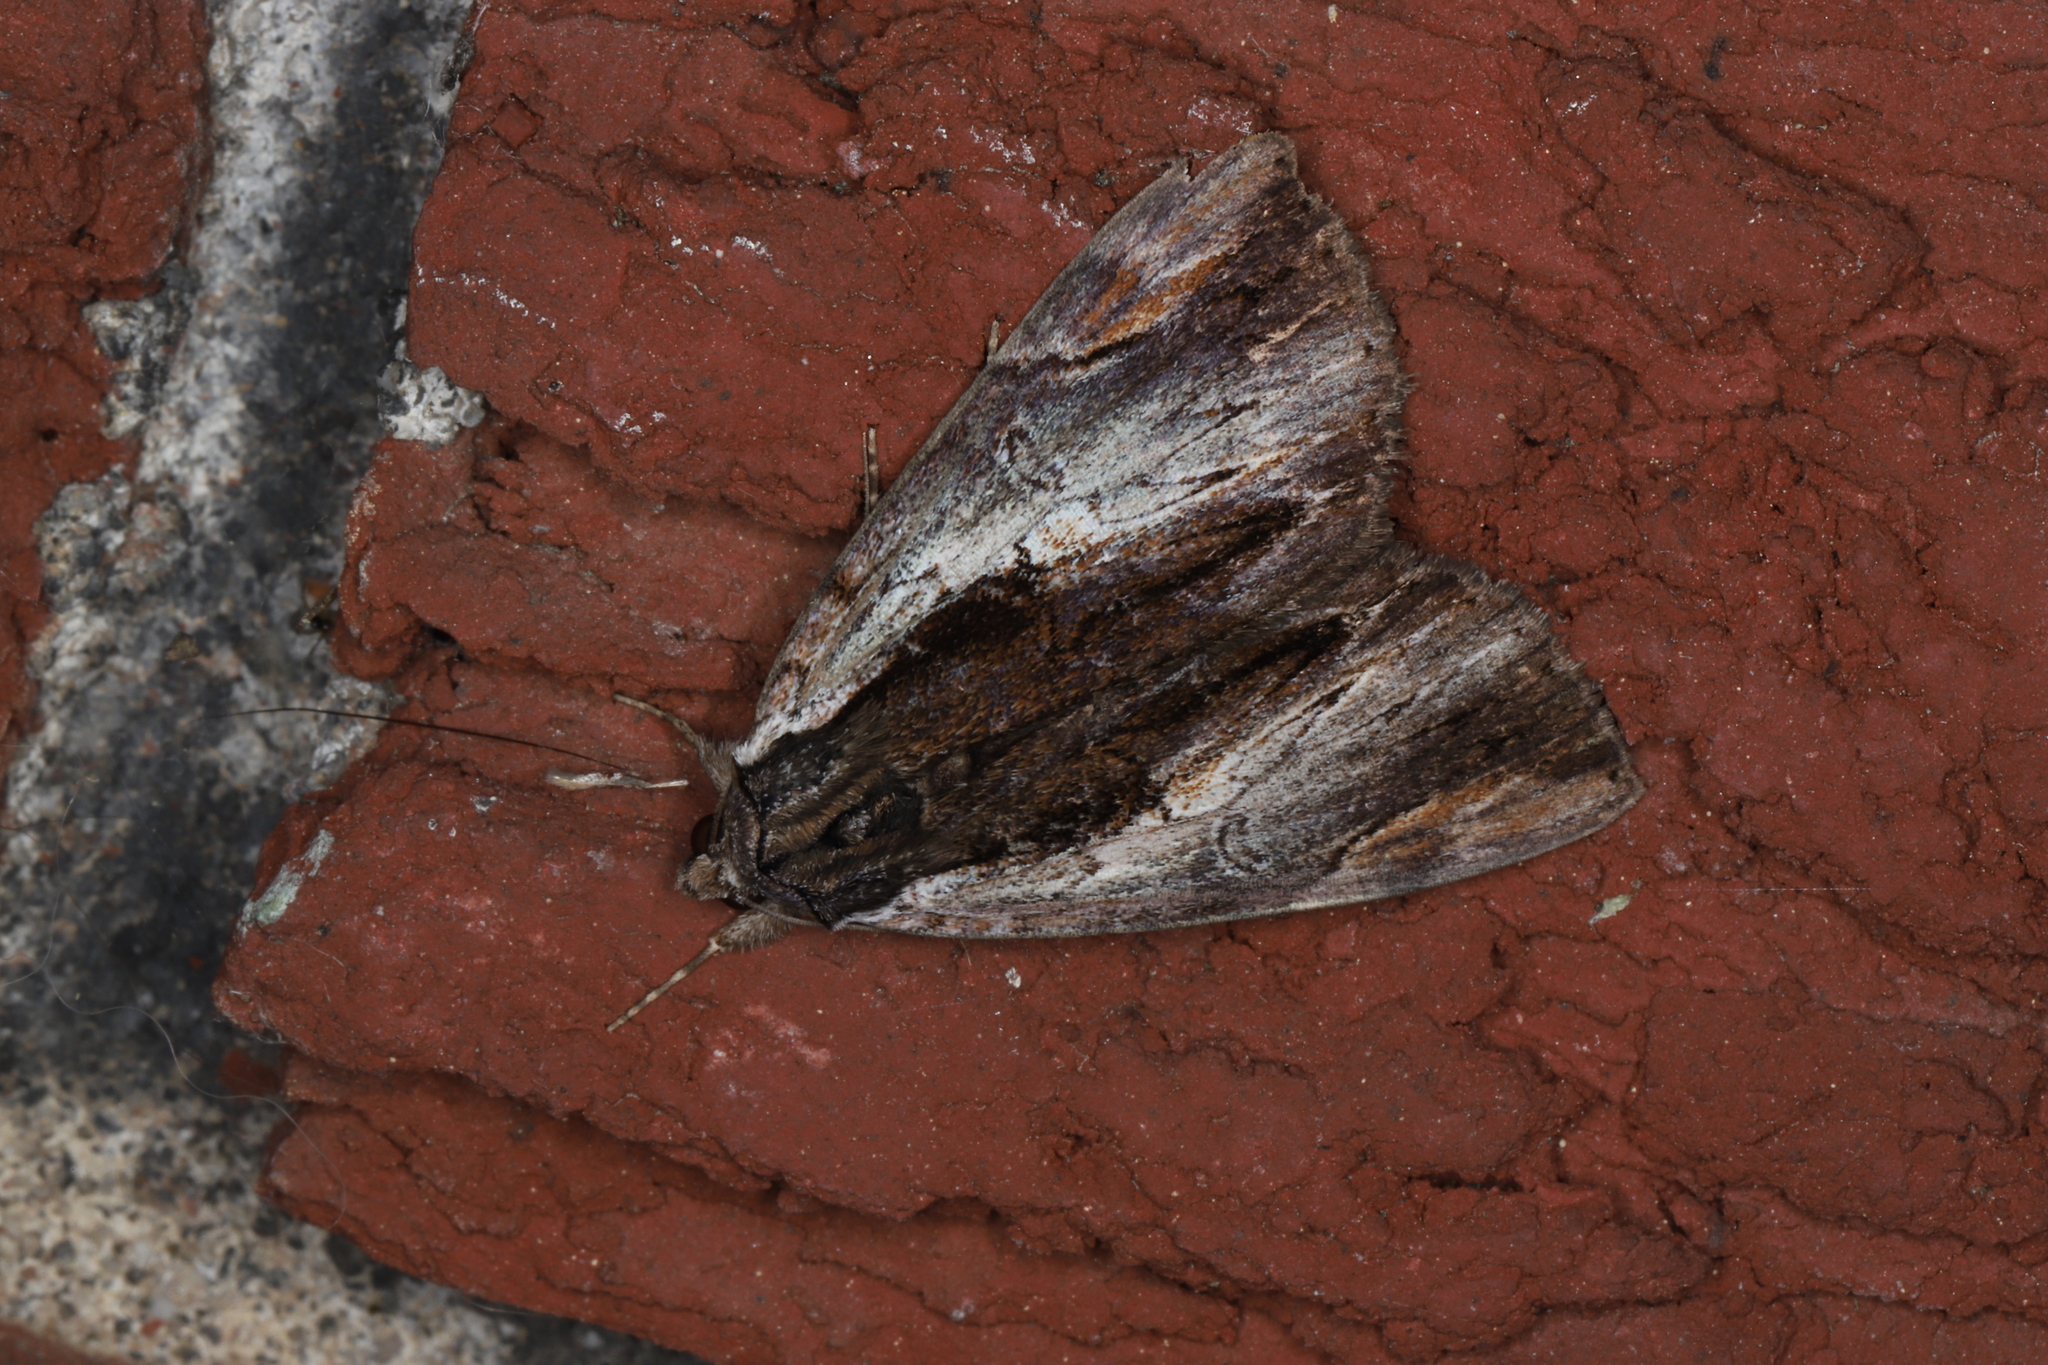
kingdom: Animalia
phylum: Arthropoda
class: Insecta
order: Lepidoptera
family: Erebidae
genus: Catocala
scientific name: Catocala ultronia
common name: Ultronia underwing
